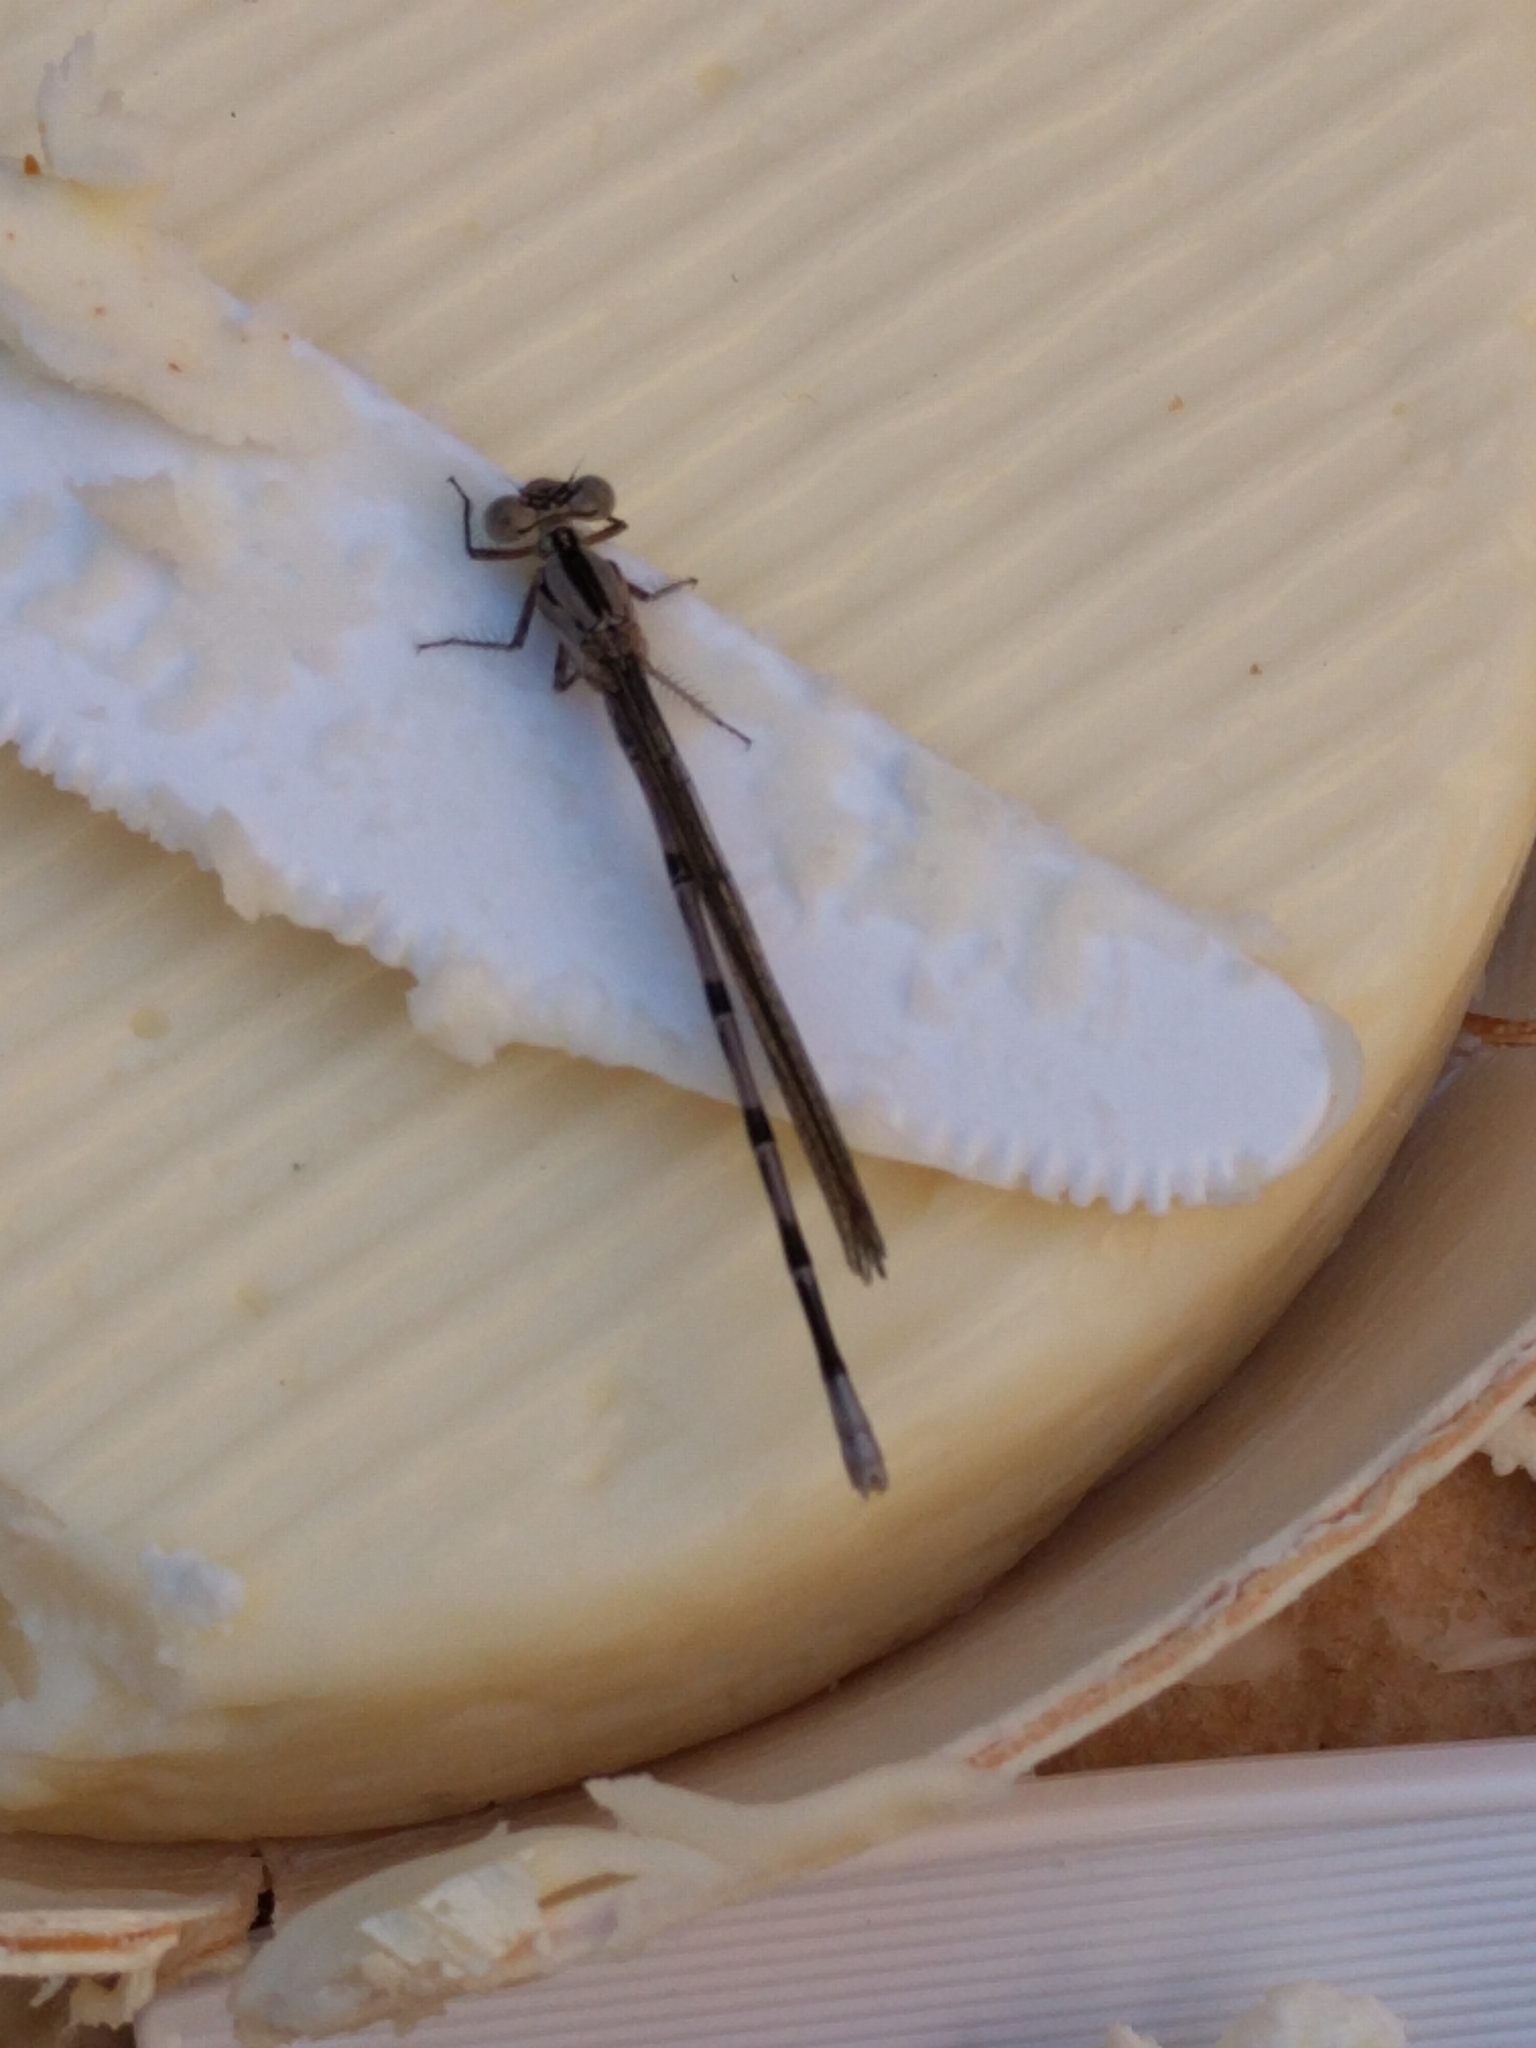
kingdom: Animalia
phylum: Arthropoda
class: Insecta
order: Odonata
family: Coenagrionidae
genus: Argia
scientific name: Argia vivida
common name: Vivid dancer
